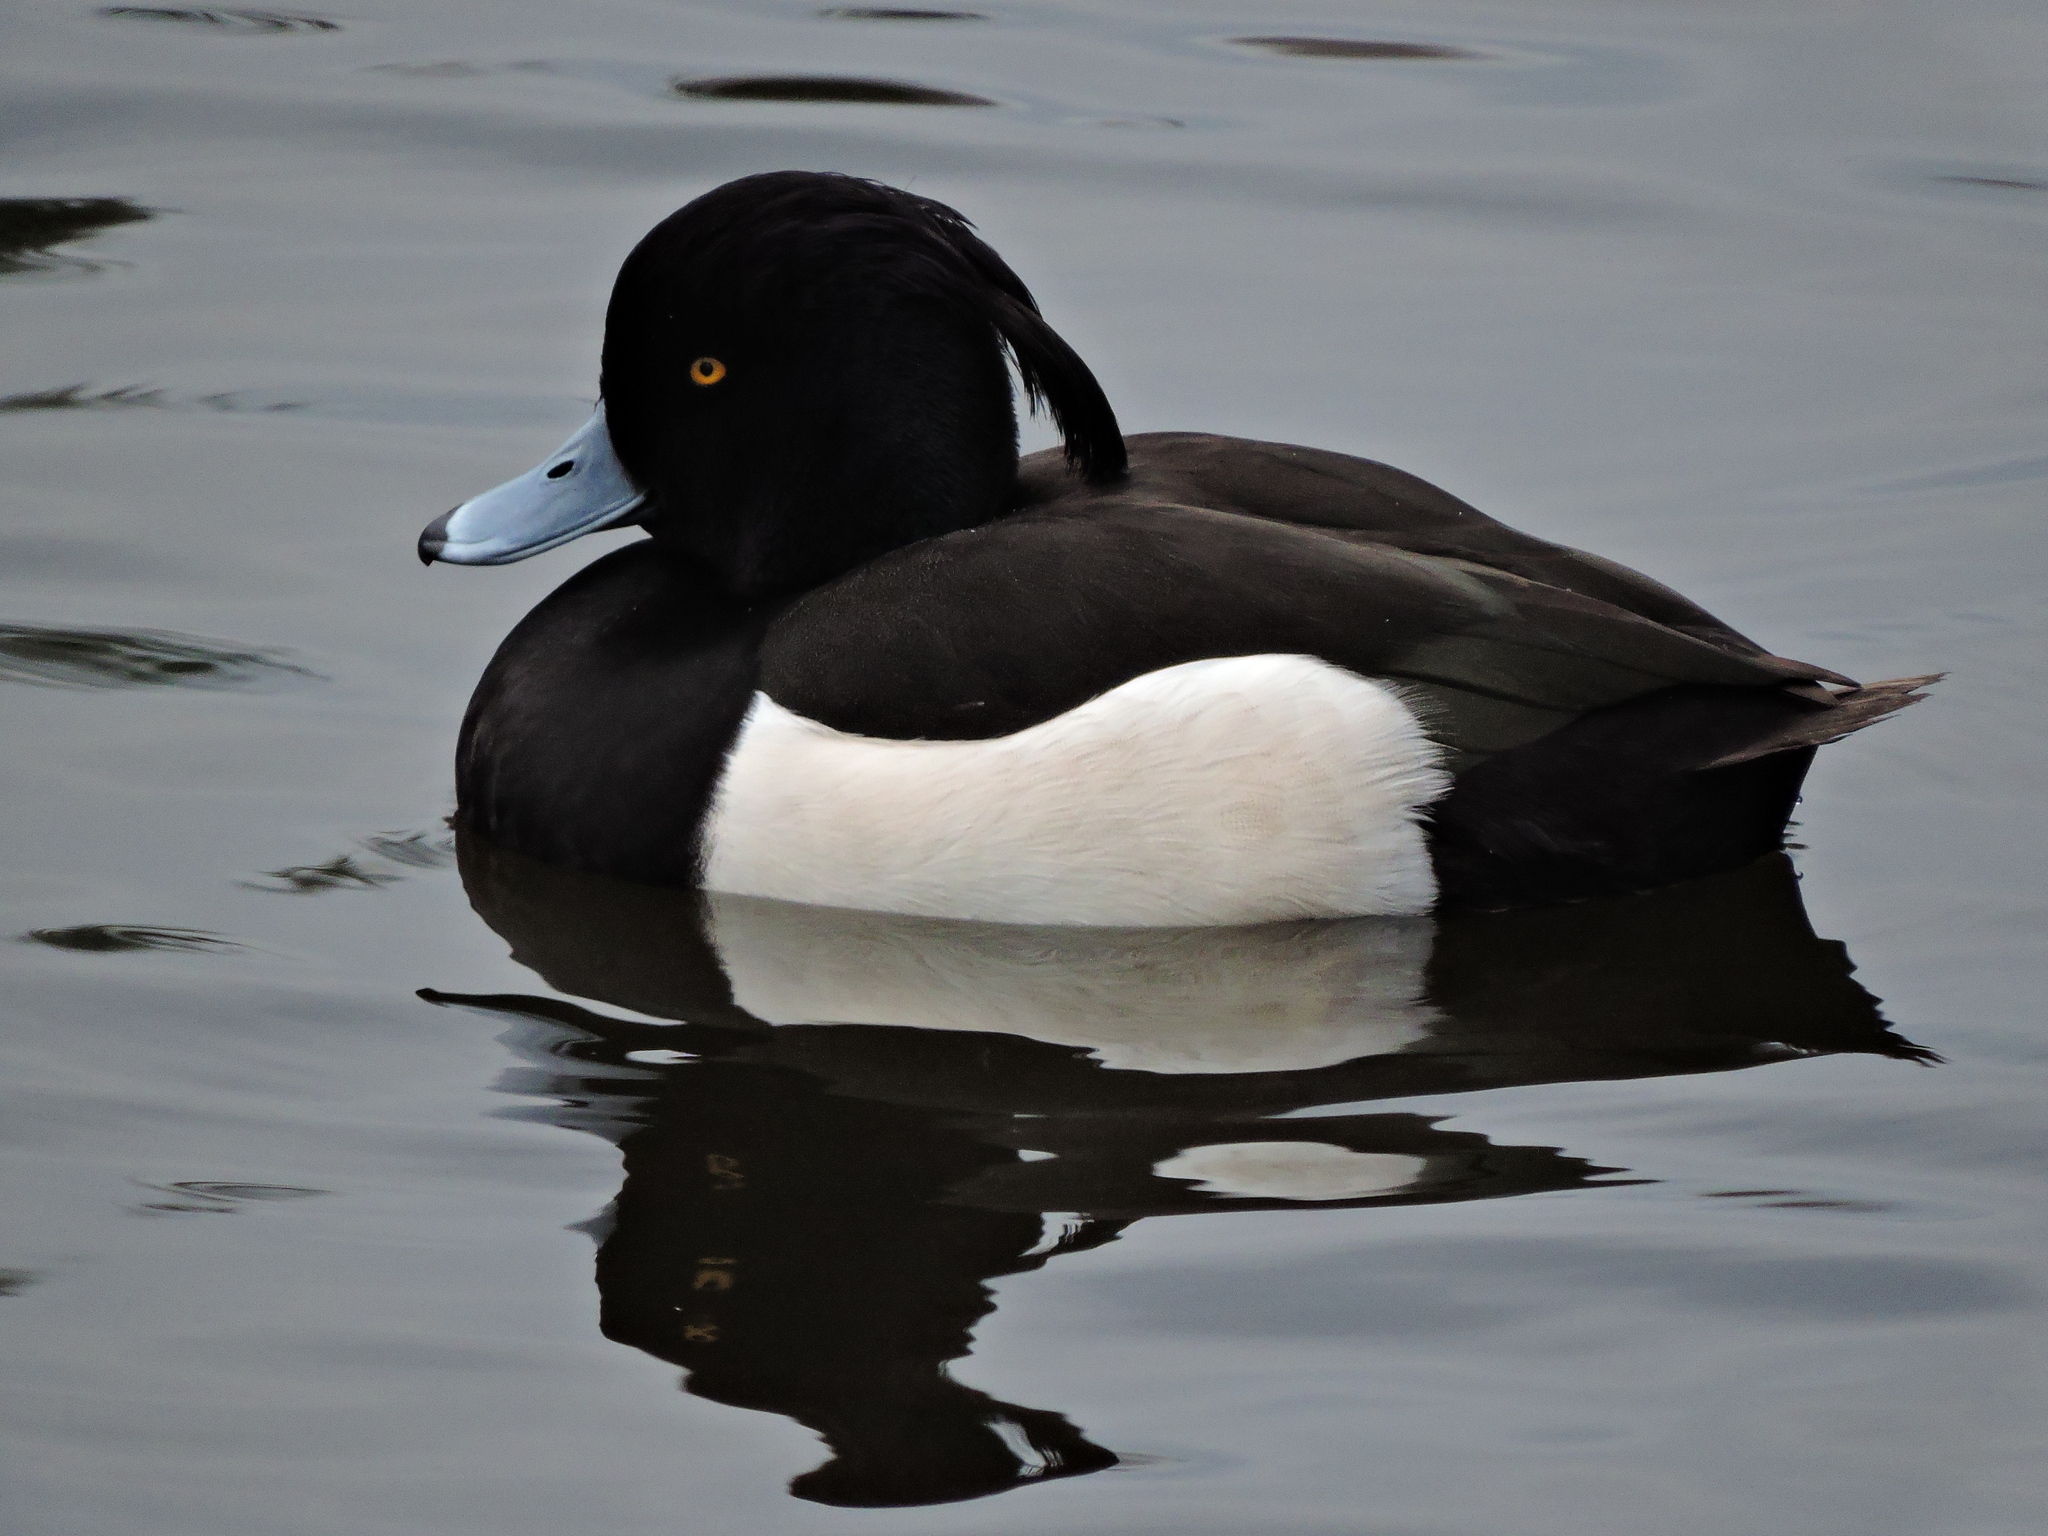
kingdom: Animalia
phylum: Chordata
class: Aves
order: Anseriformes
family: Anatidae
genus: Aythya
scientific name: Aythya fuligula
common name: Tufted duck
